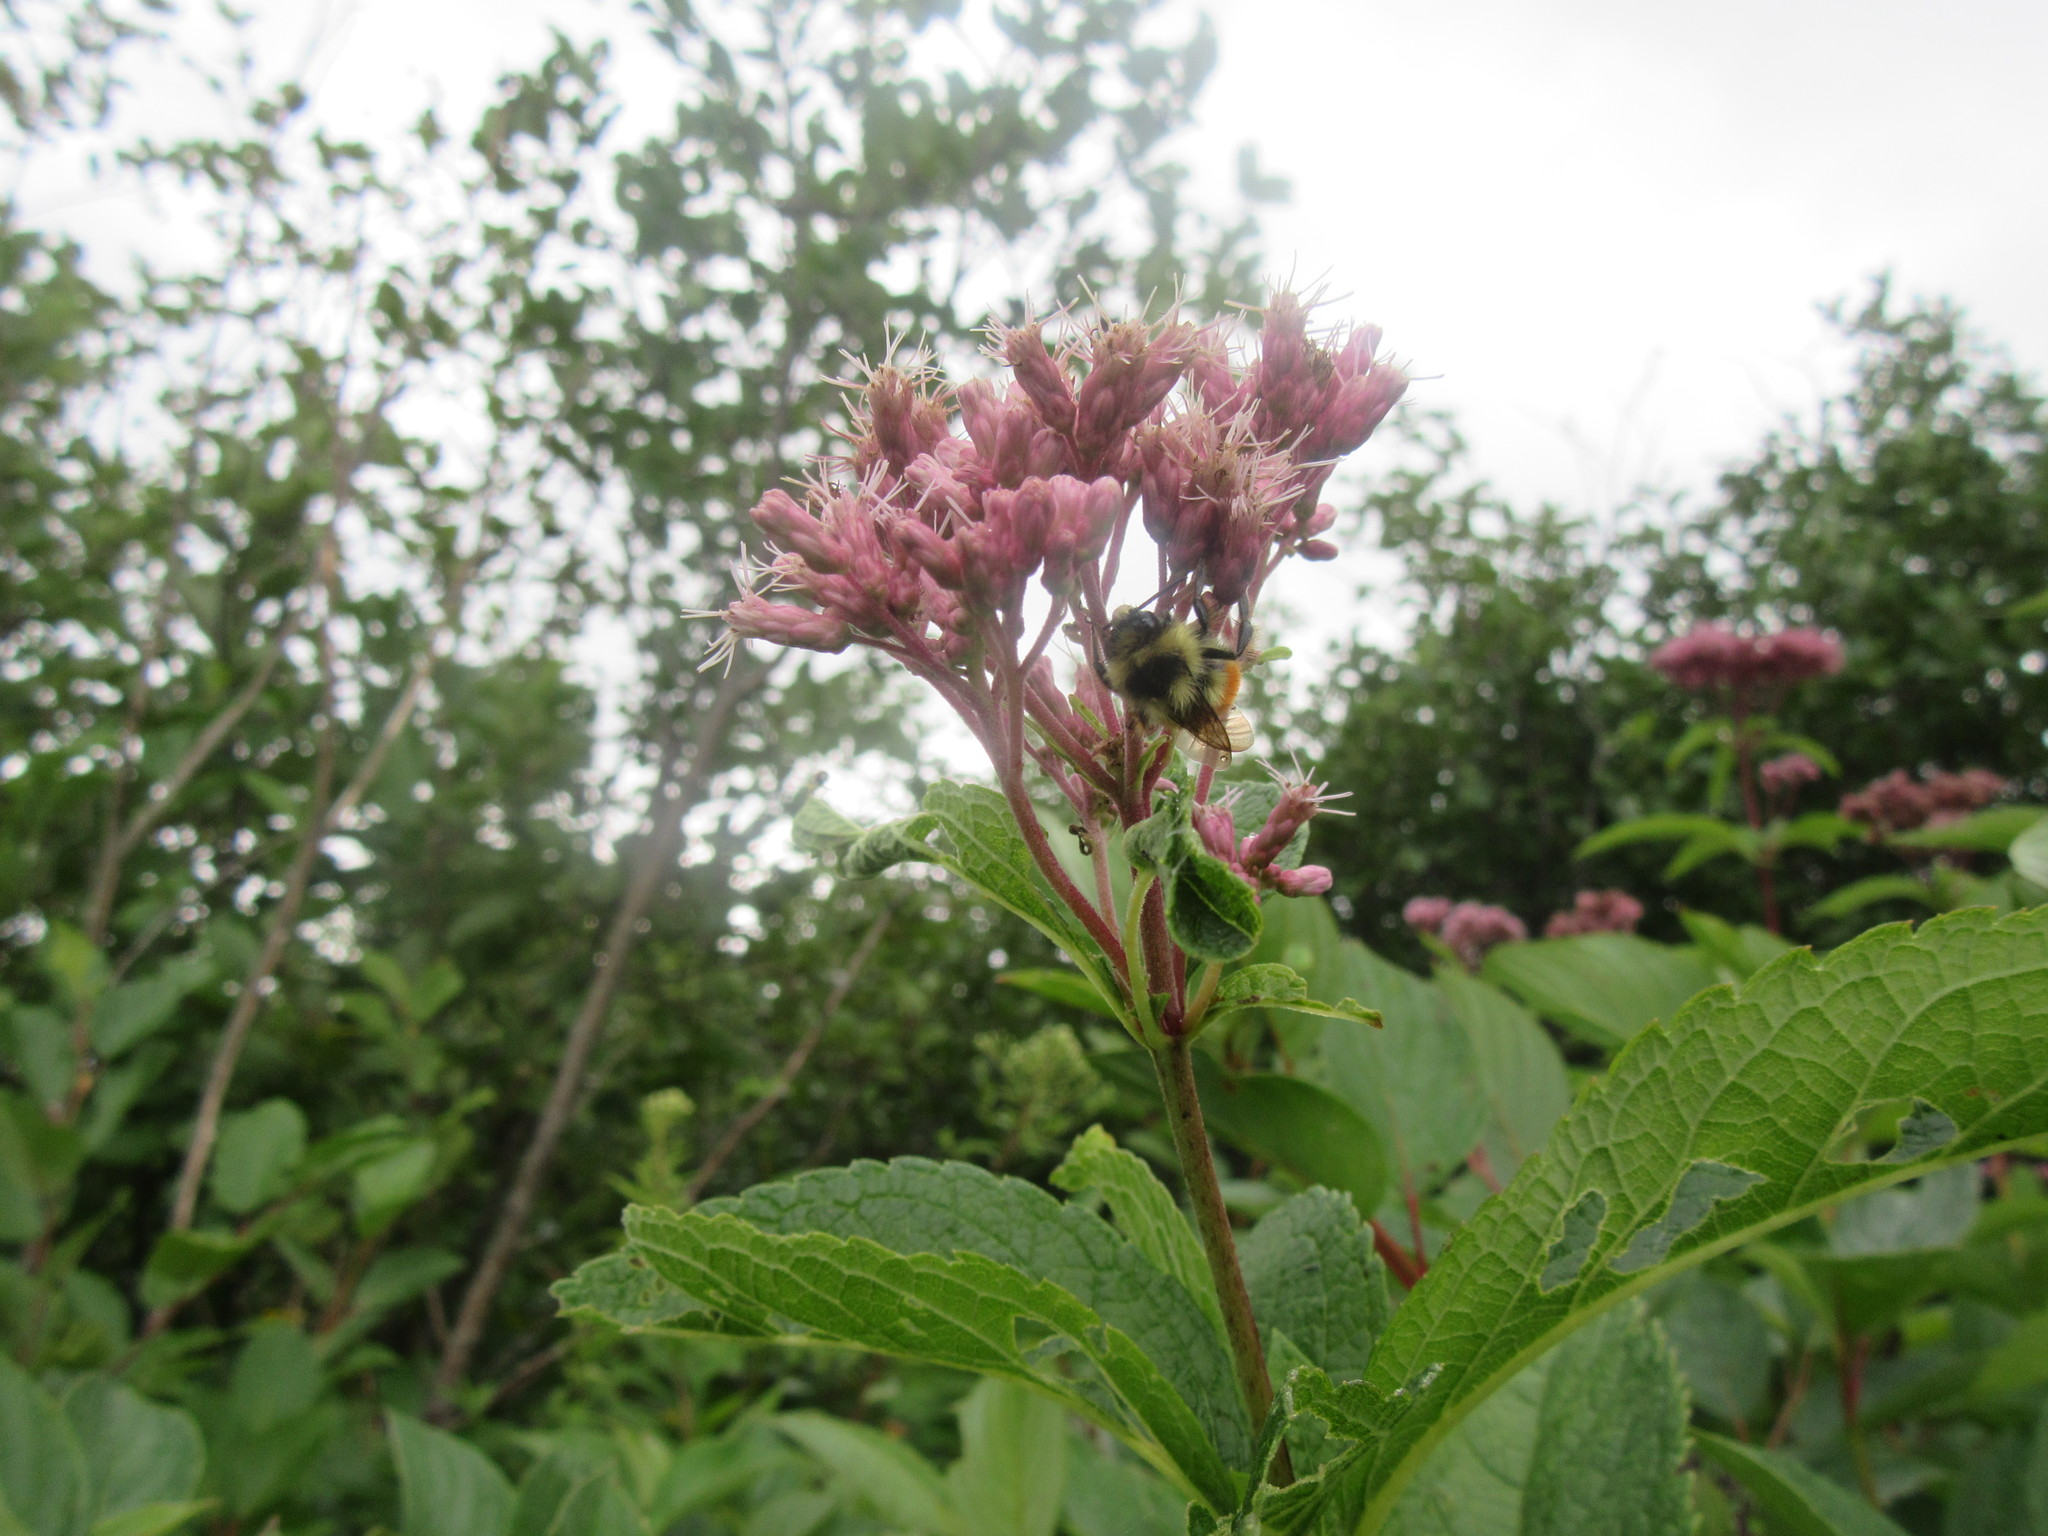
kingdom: Animalia
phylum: Arthropoda
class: Insecta
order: Hymenoptera
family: Apidae
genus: Bombus
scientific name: Bombus ternarius
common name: Tri-colored bumble bee
